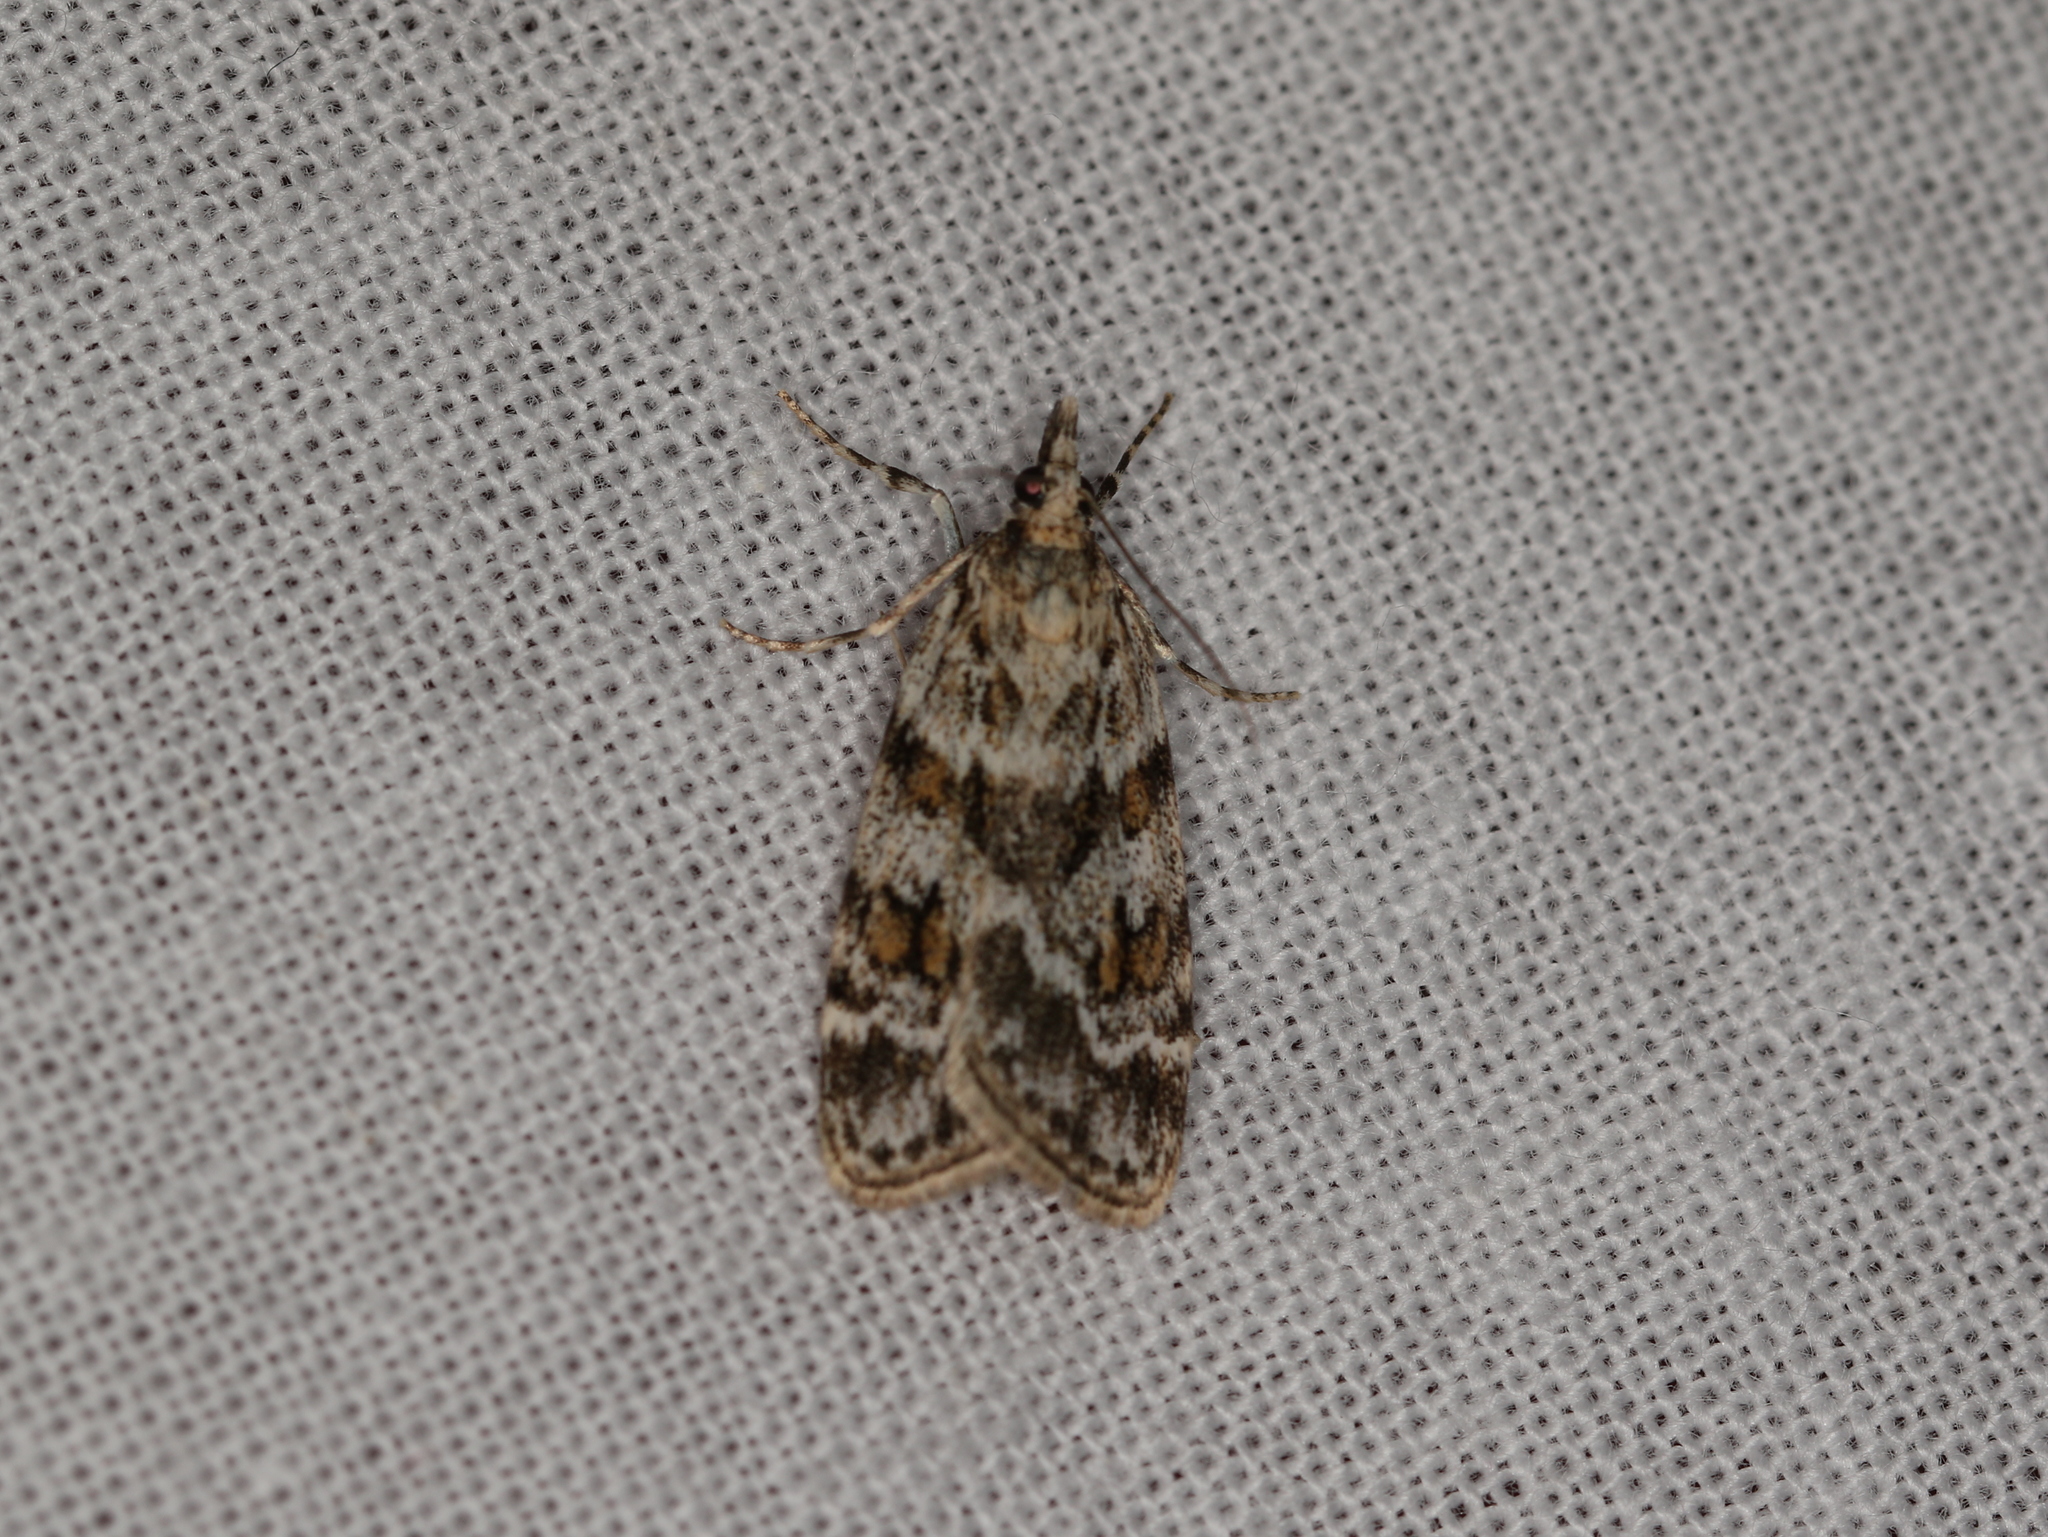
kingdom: Animalia
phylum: Arthropoda
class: Insecta
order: Lepidoptera
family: Crambidae
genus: Scoparia
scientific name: Scoparia pyralella
